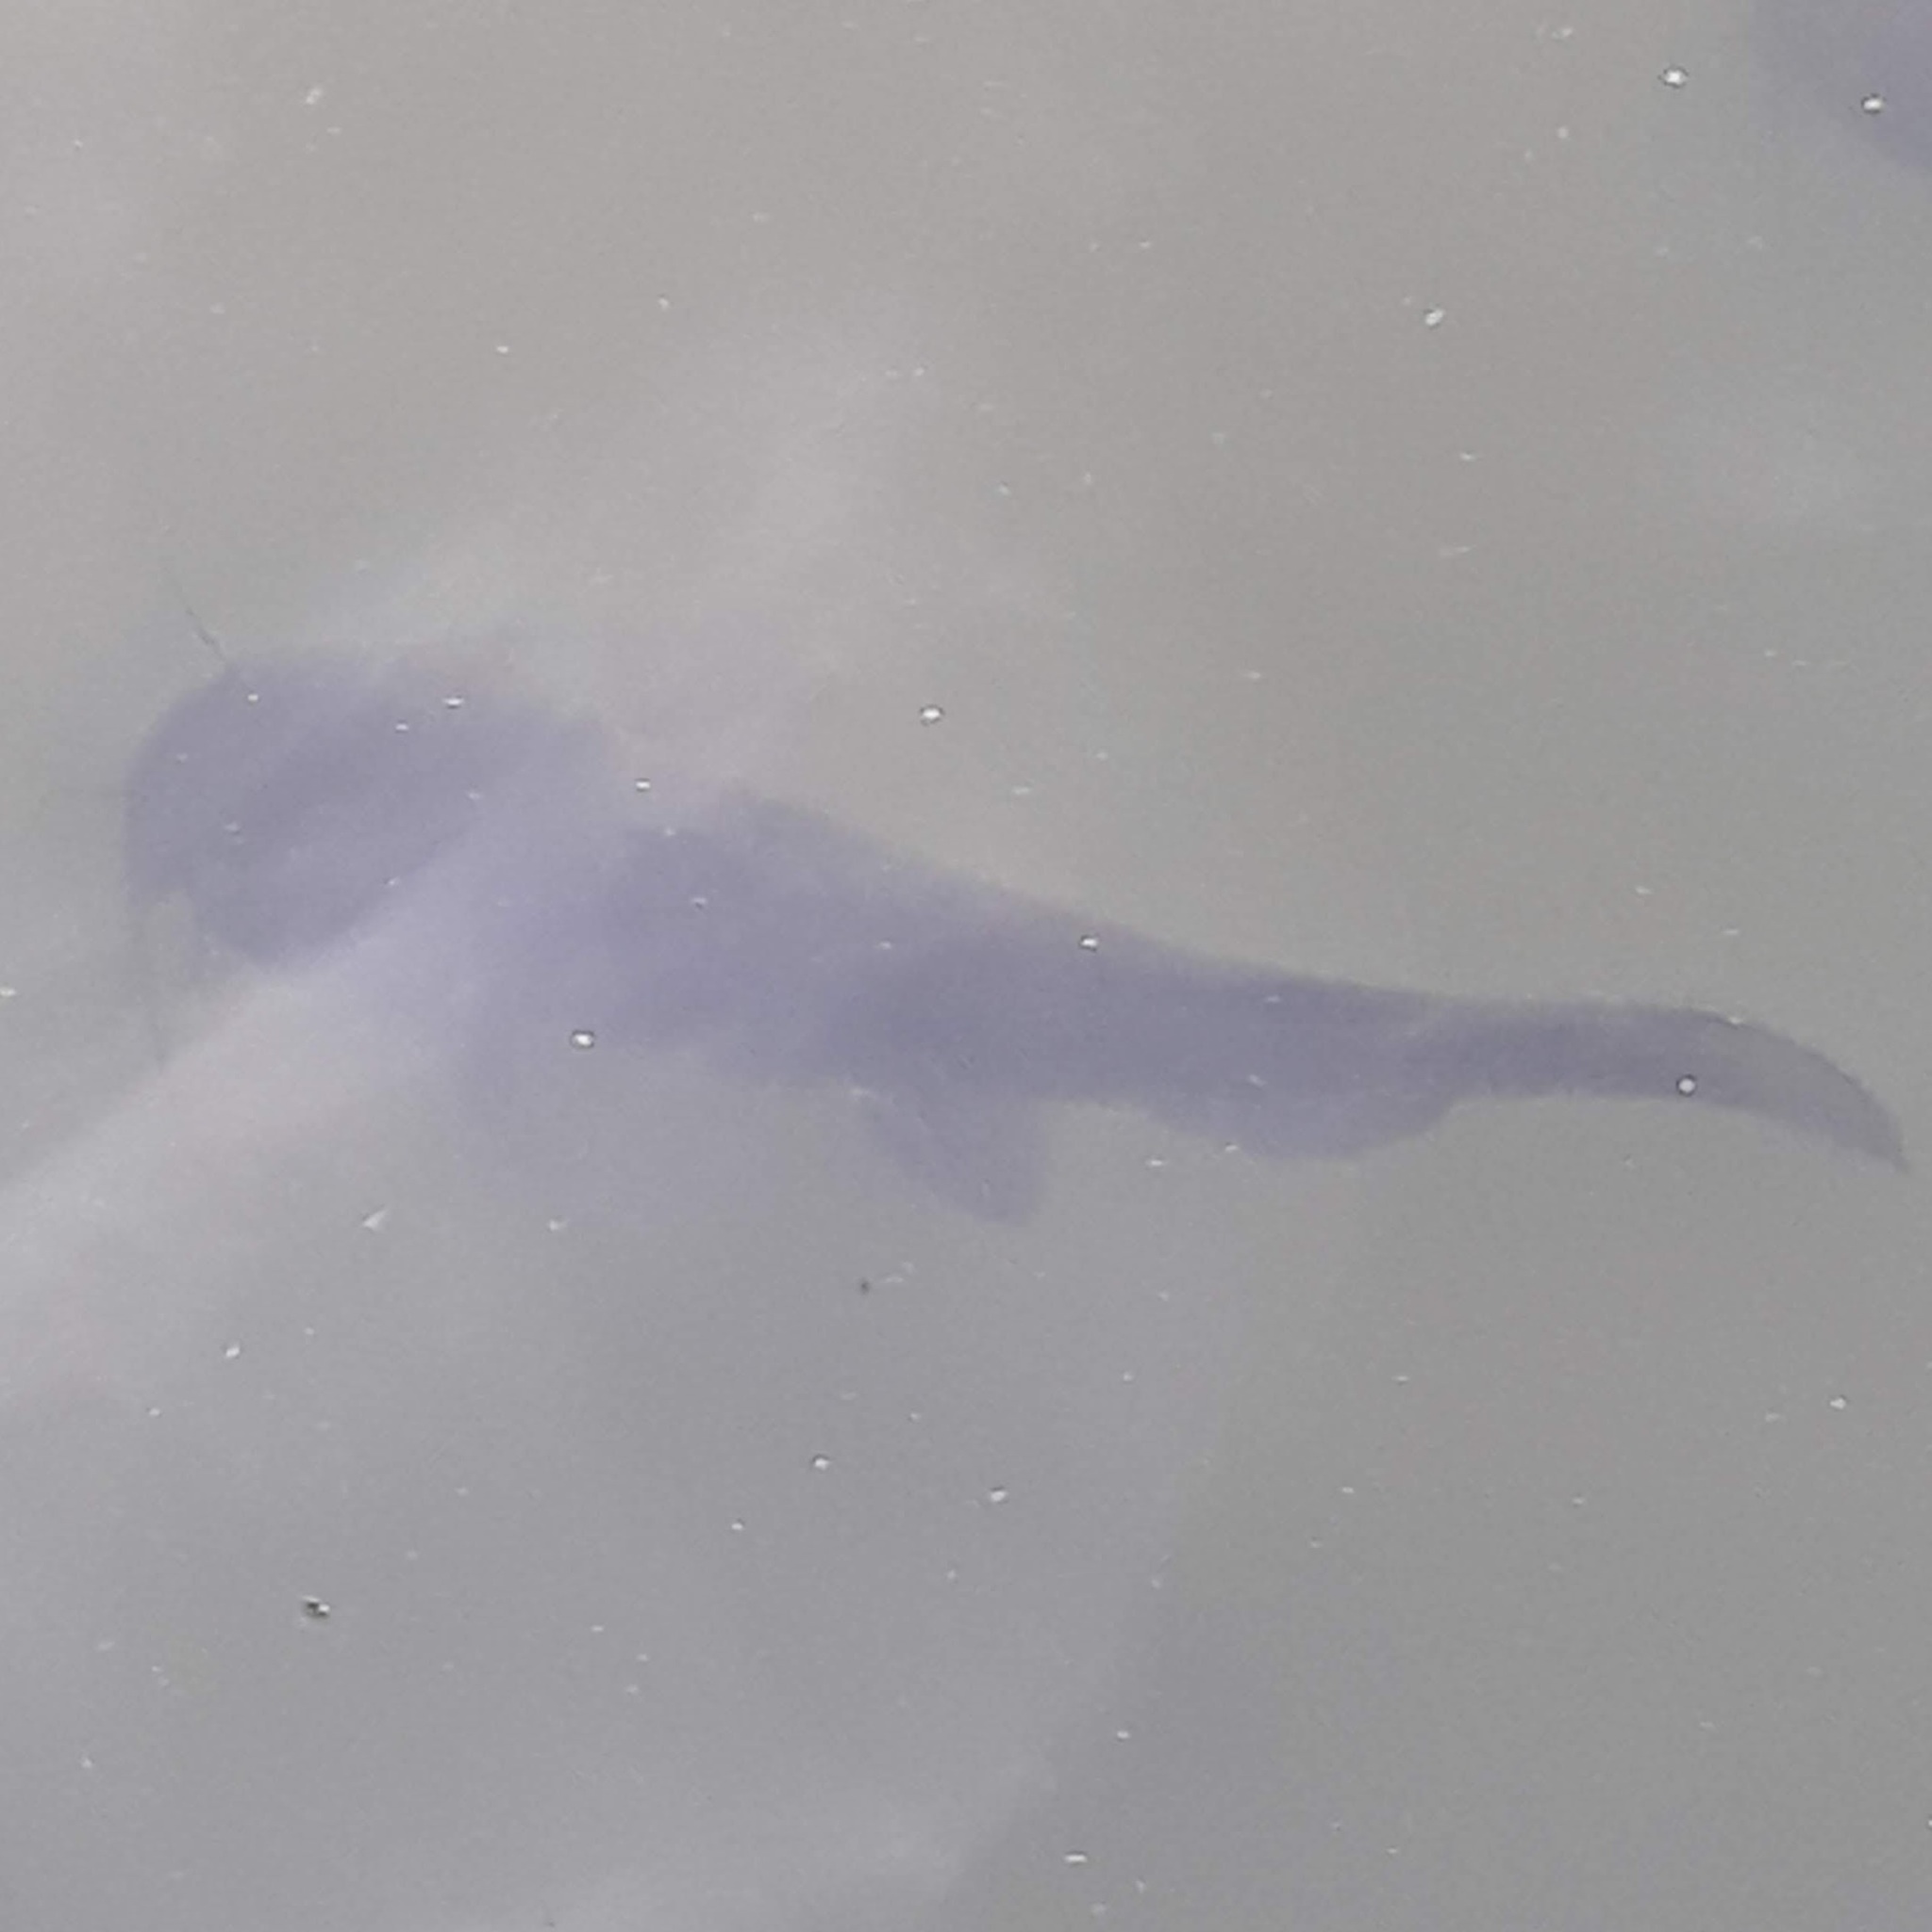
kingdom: Animalia
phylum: Chordata
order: Siluriformes
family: Ictaluridae
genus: Ameiurus
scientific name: Ameiurus
